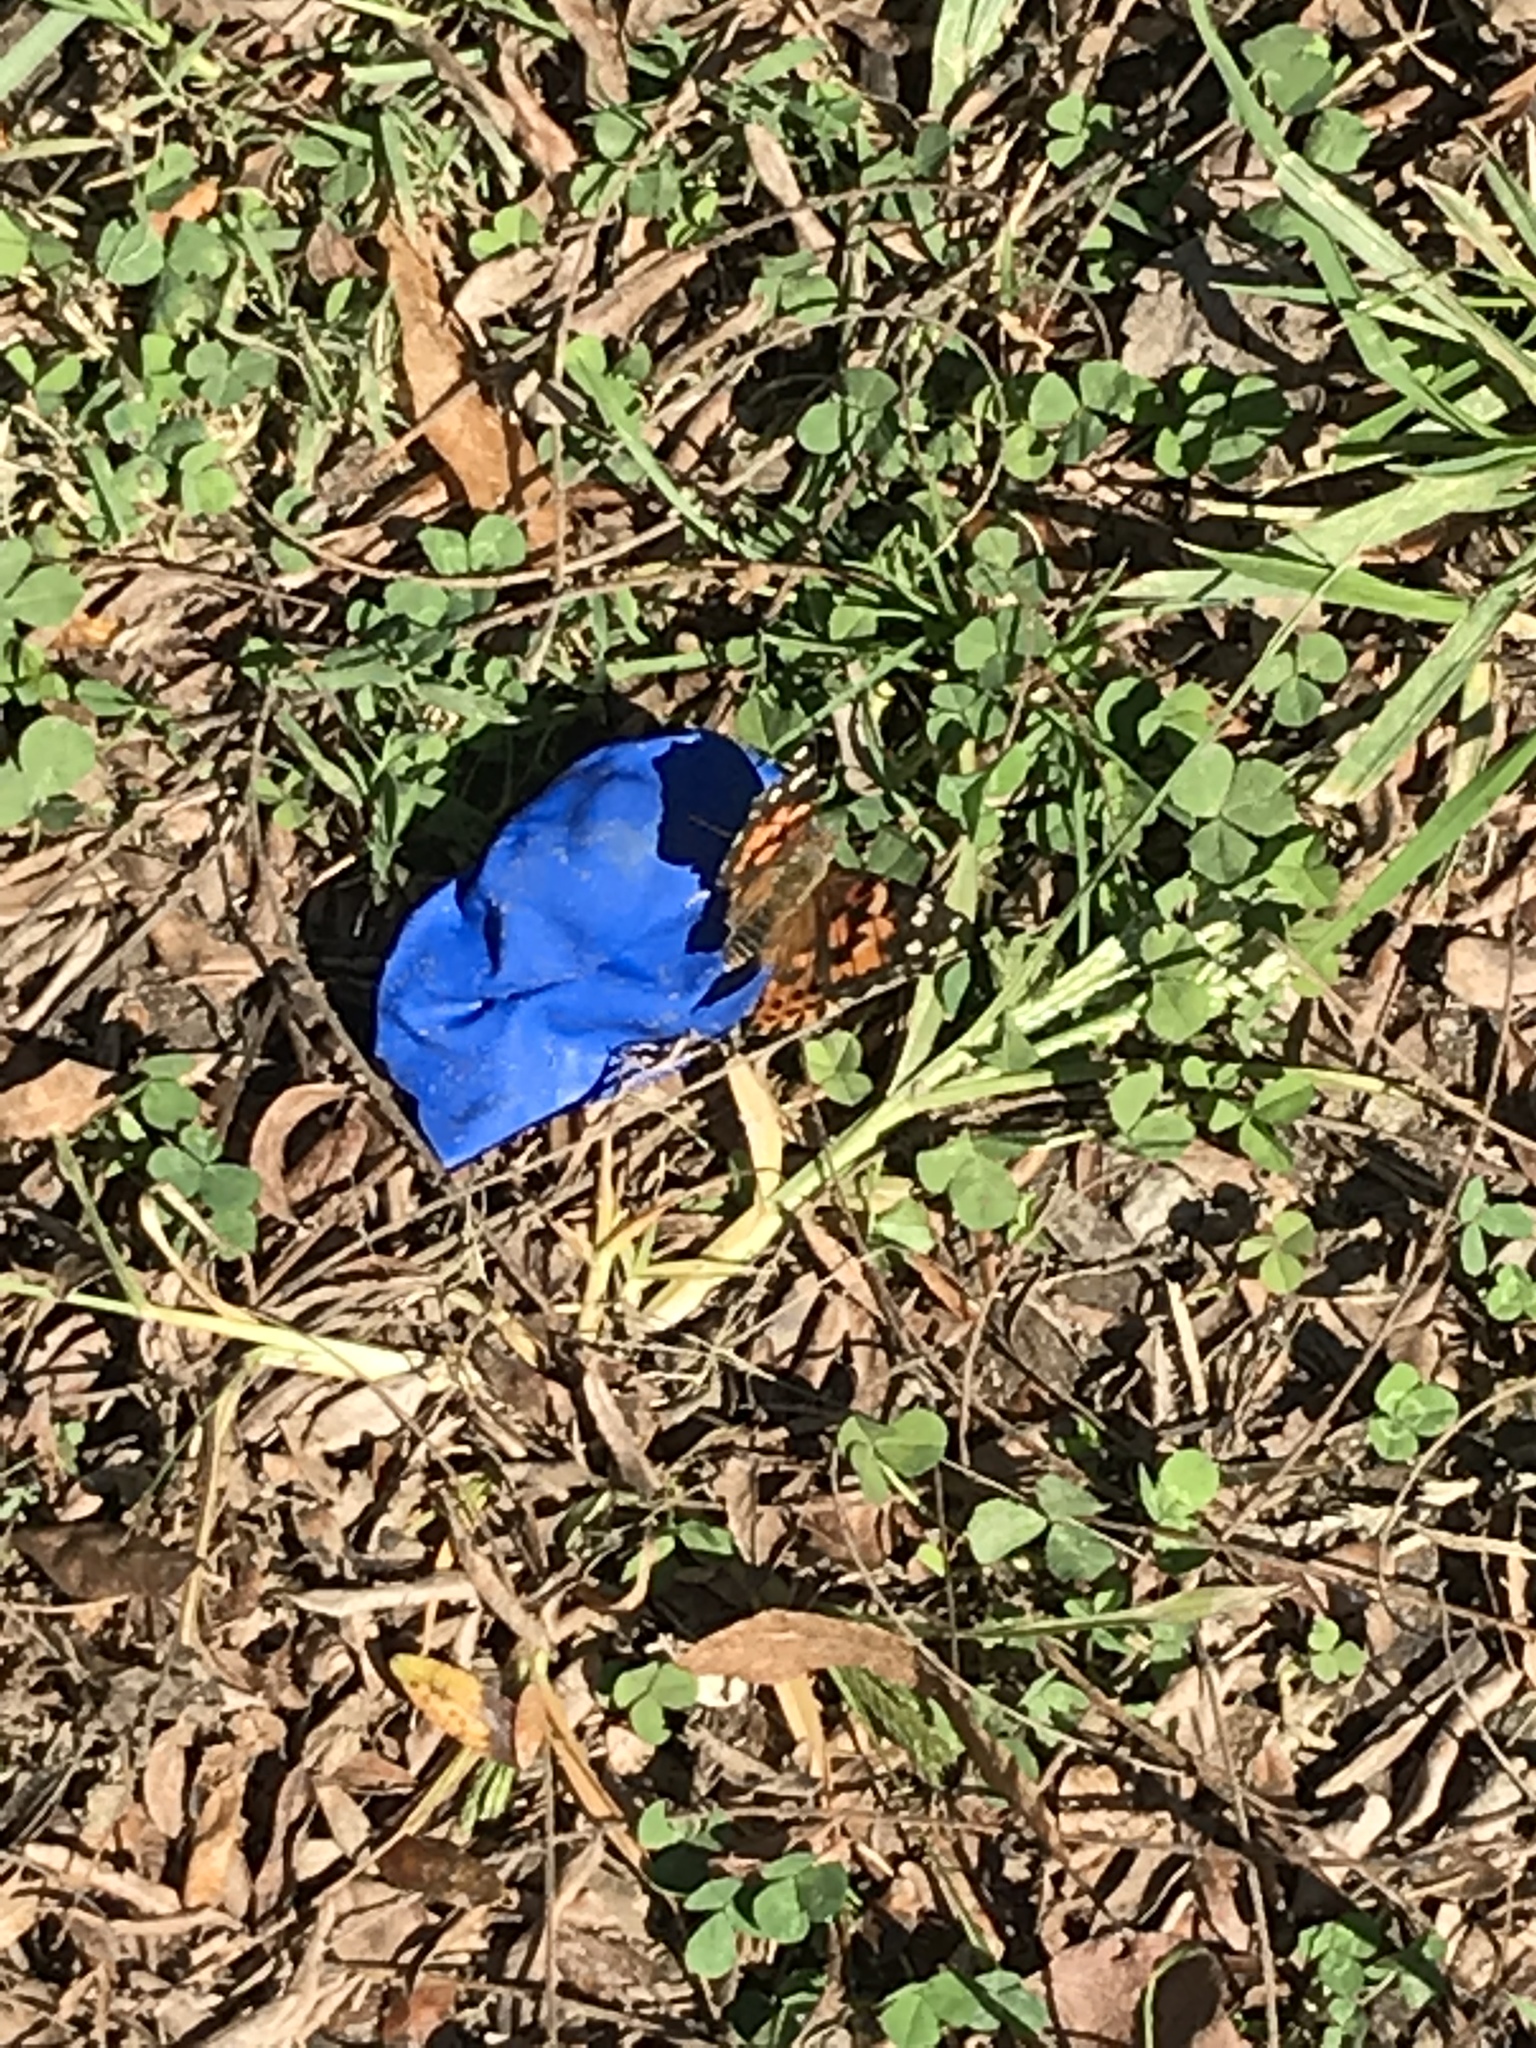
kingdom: Animalia
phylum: Arthropoda
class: Insecta
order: Lepidoptera
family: Nymphalidae
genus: Vanessa
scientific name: Vanessa cardui
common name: Painted lady
